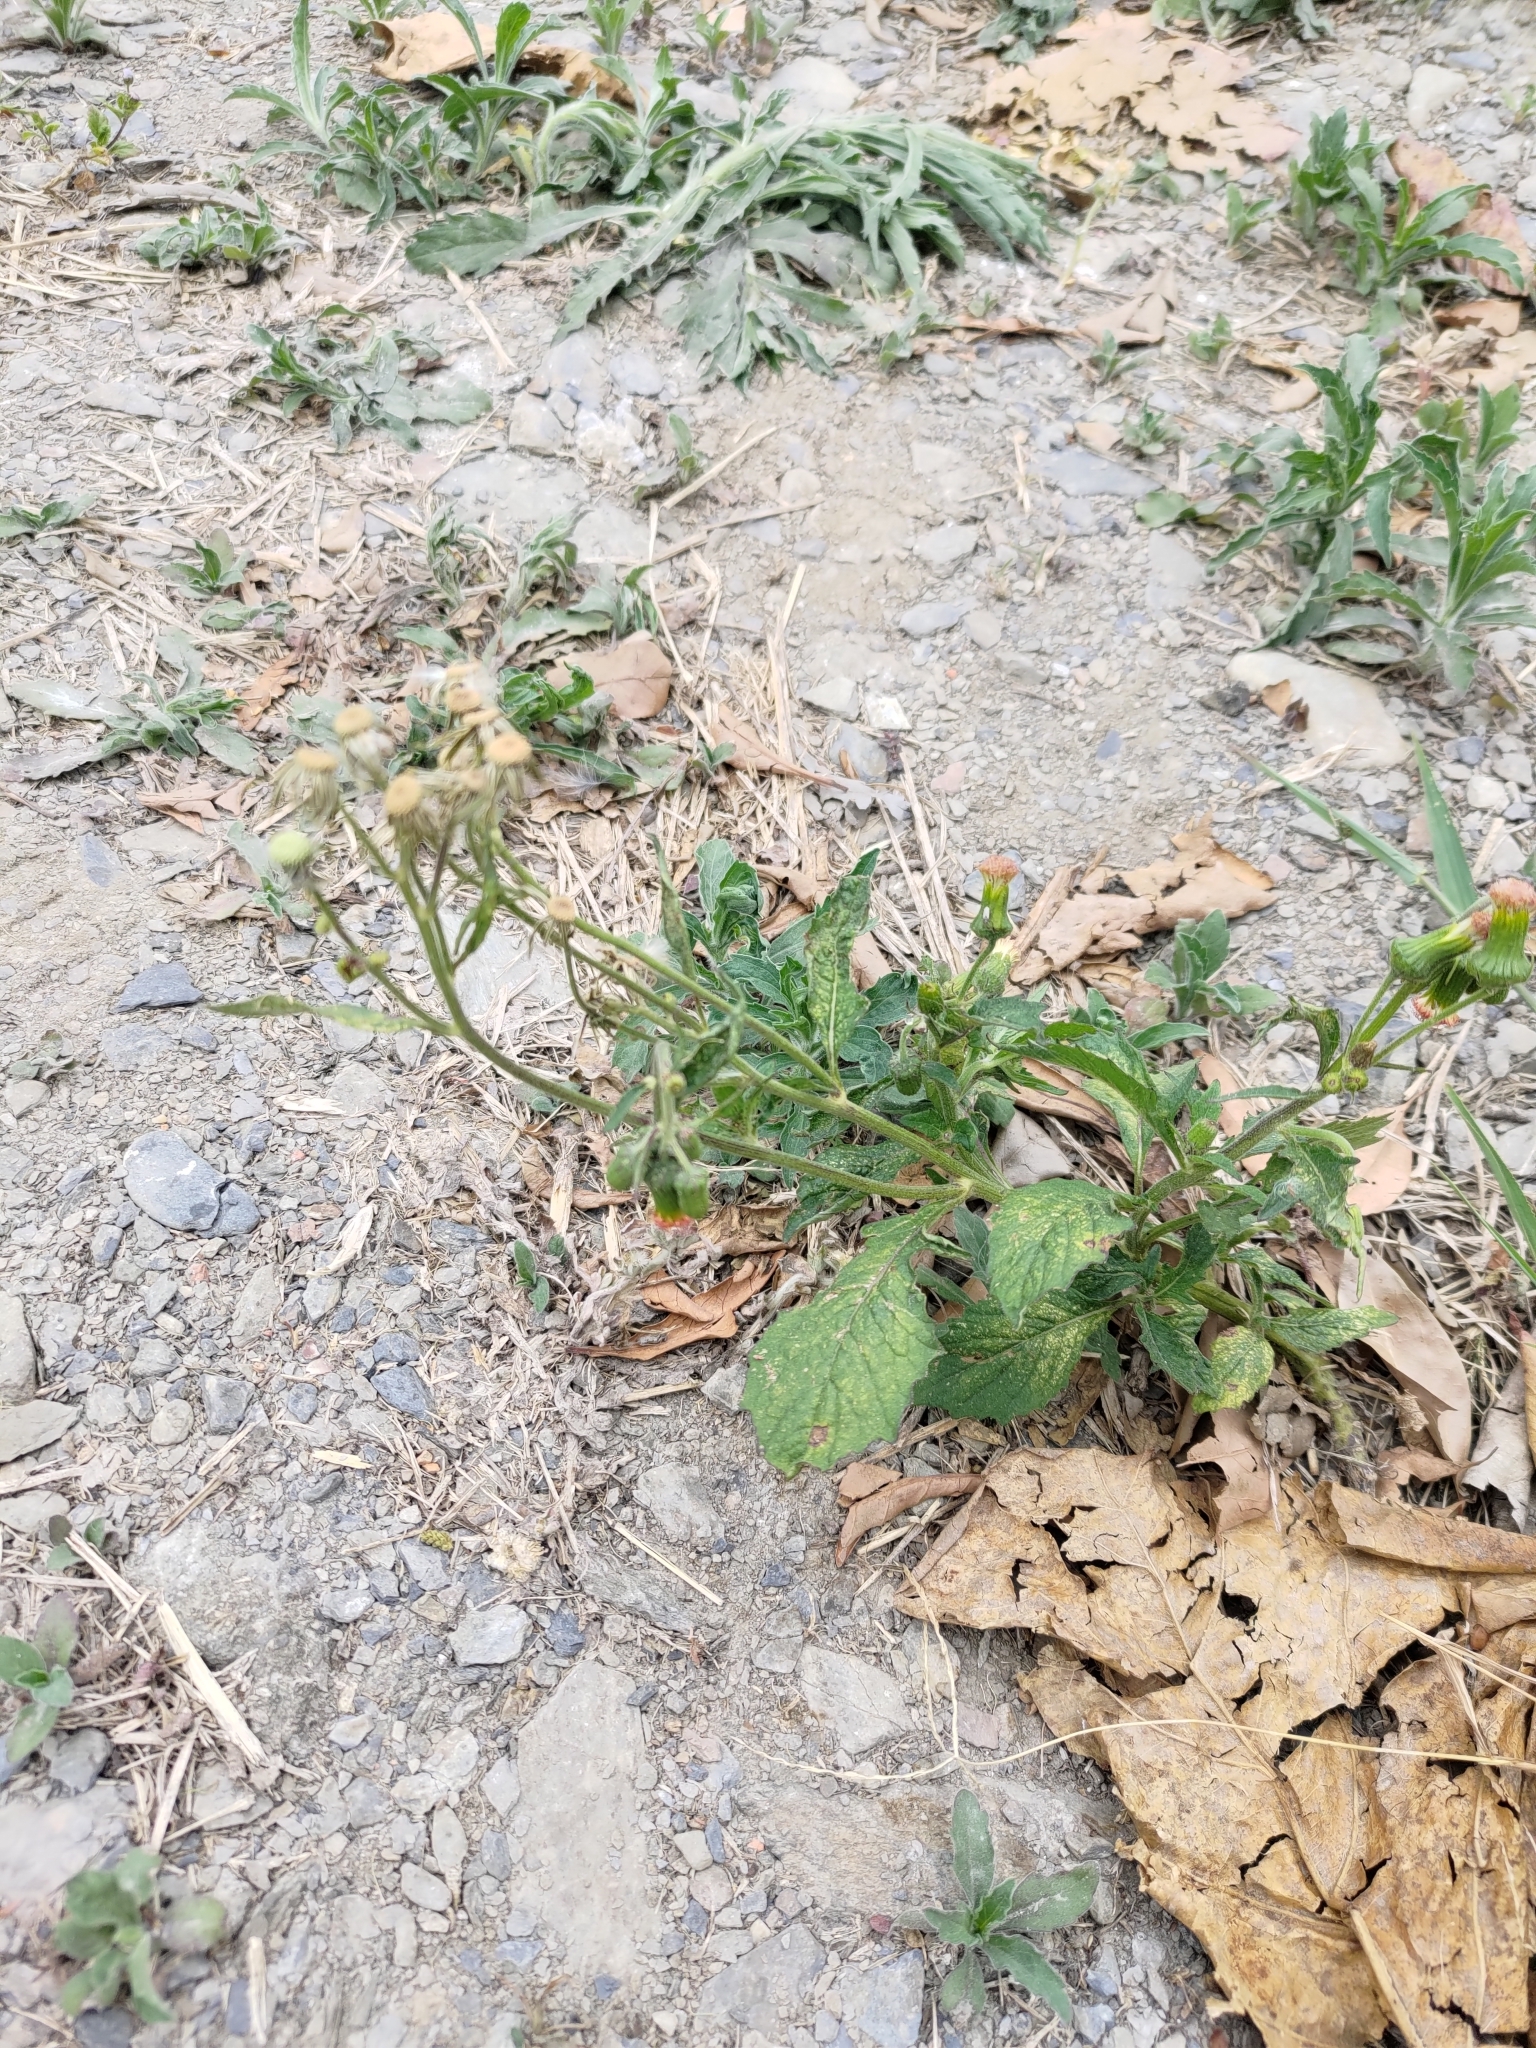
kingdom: Plantae
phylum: Tracheophyta
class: Magnoliopsida
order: Asterales
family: Asteraceae
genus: Crassocephalum
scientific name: Crassocephalum crepidioides
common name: Redflower ragleaf
